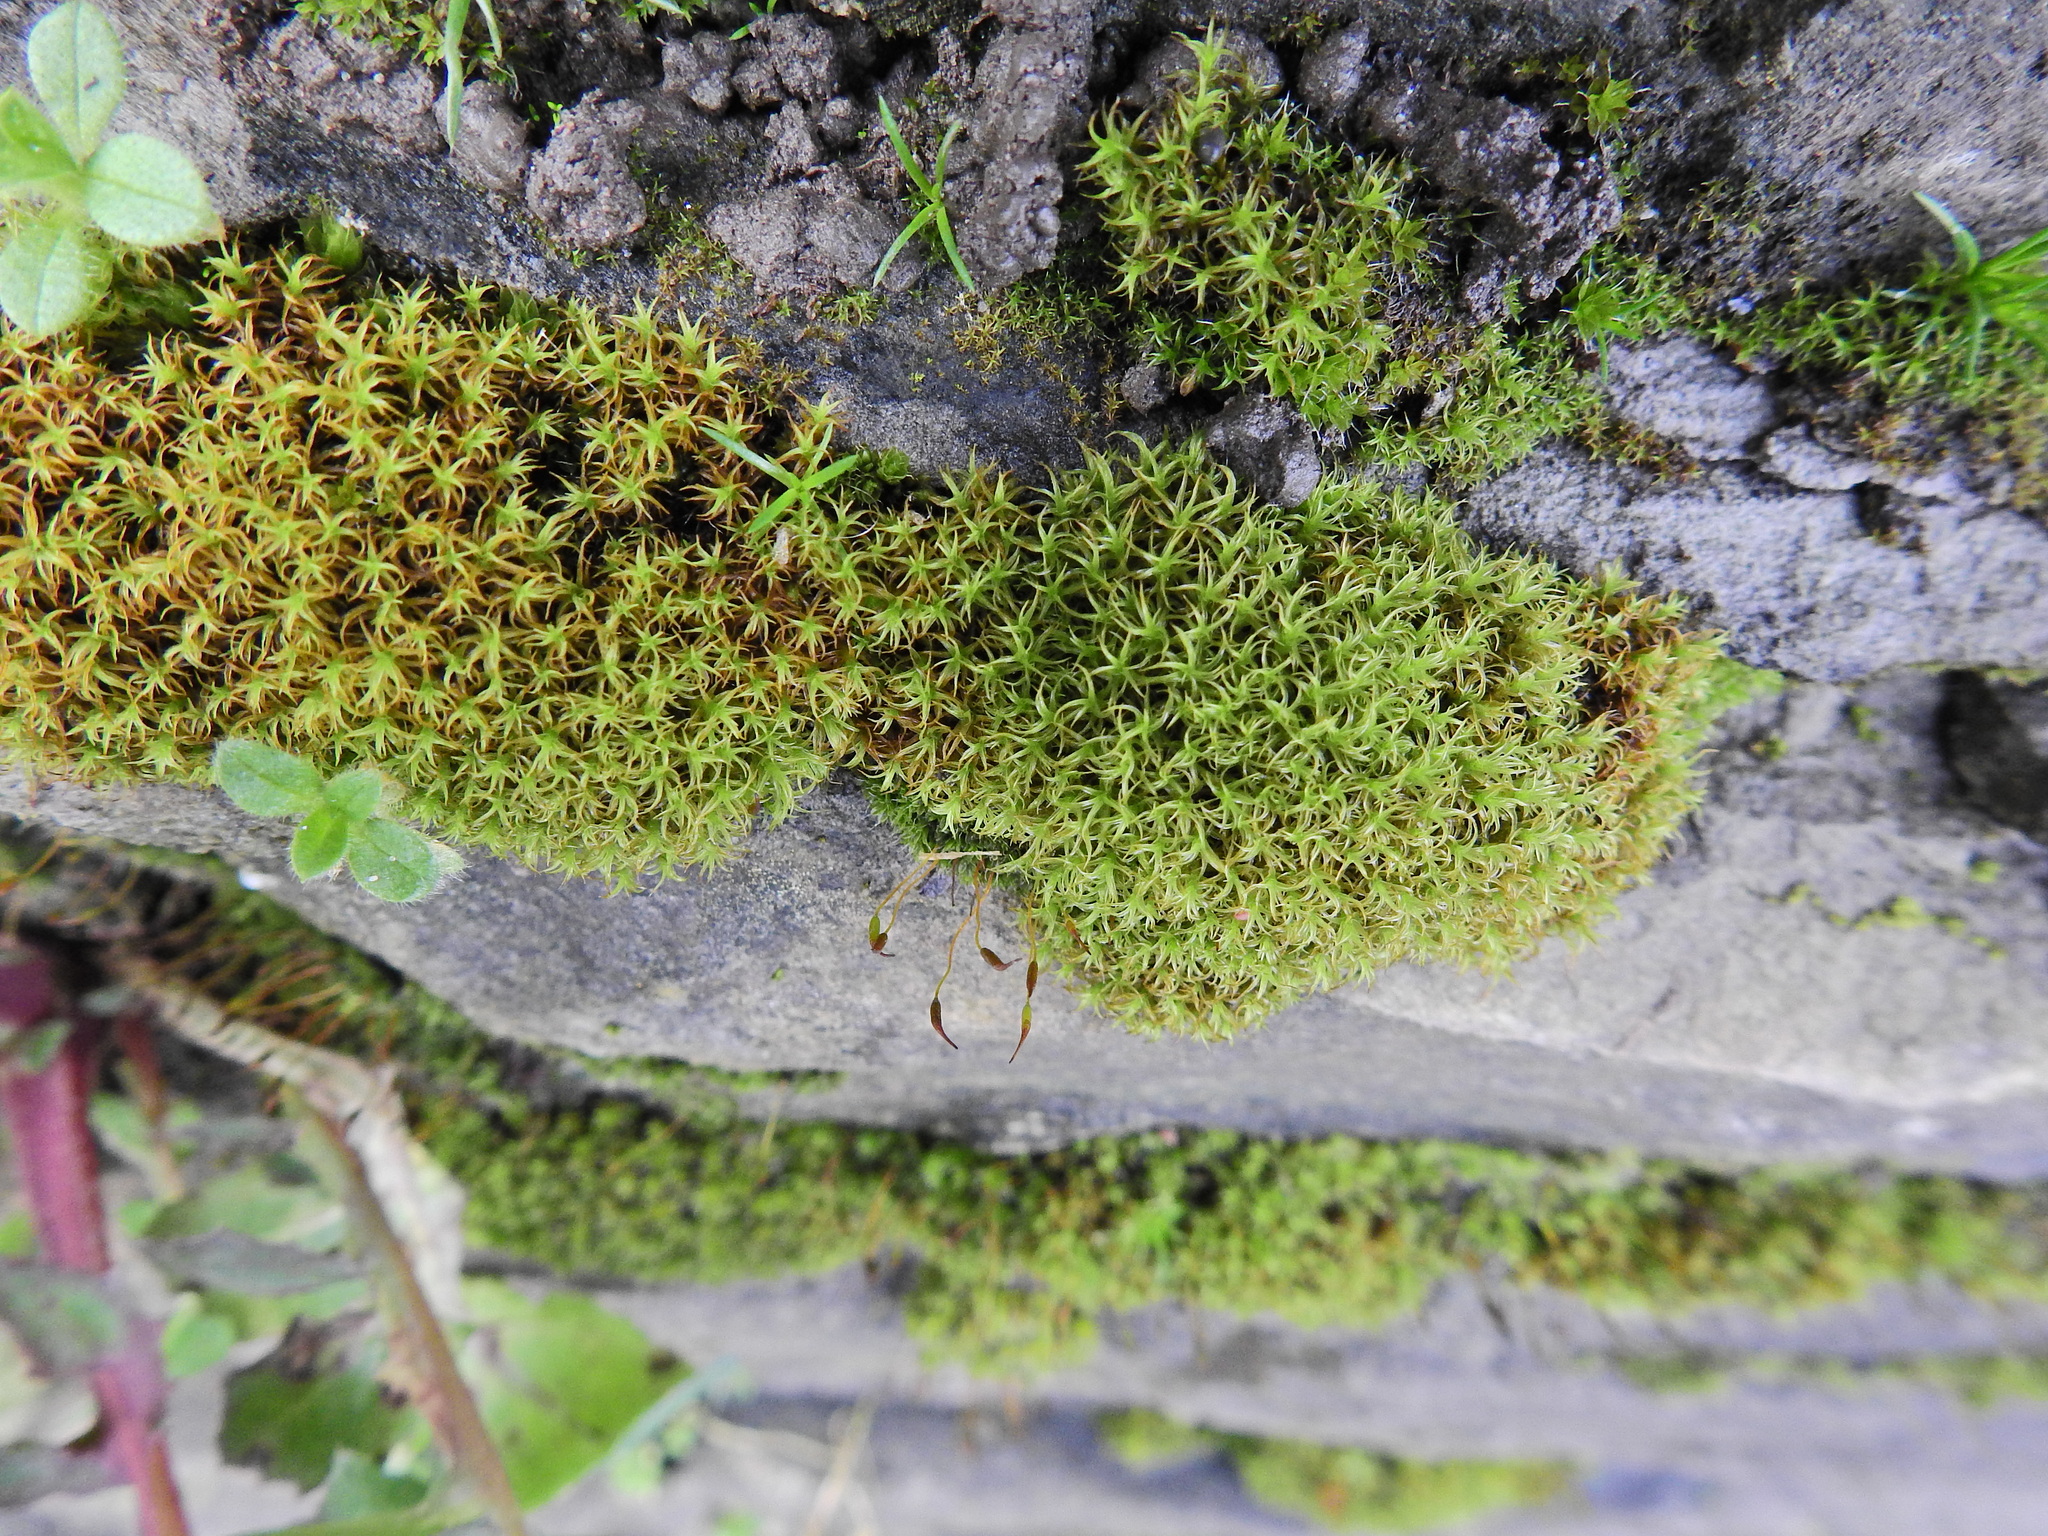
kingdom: Plantae
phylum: Bryophyta
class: Bryopsida
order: Pottiales
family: Pottiaceae
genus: Vinealobryum
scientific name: Vinealobryum insulanum
